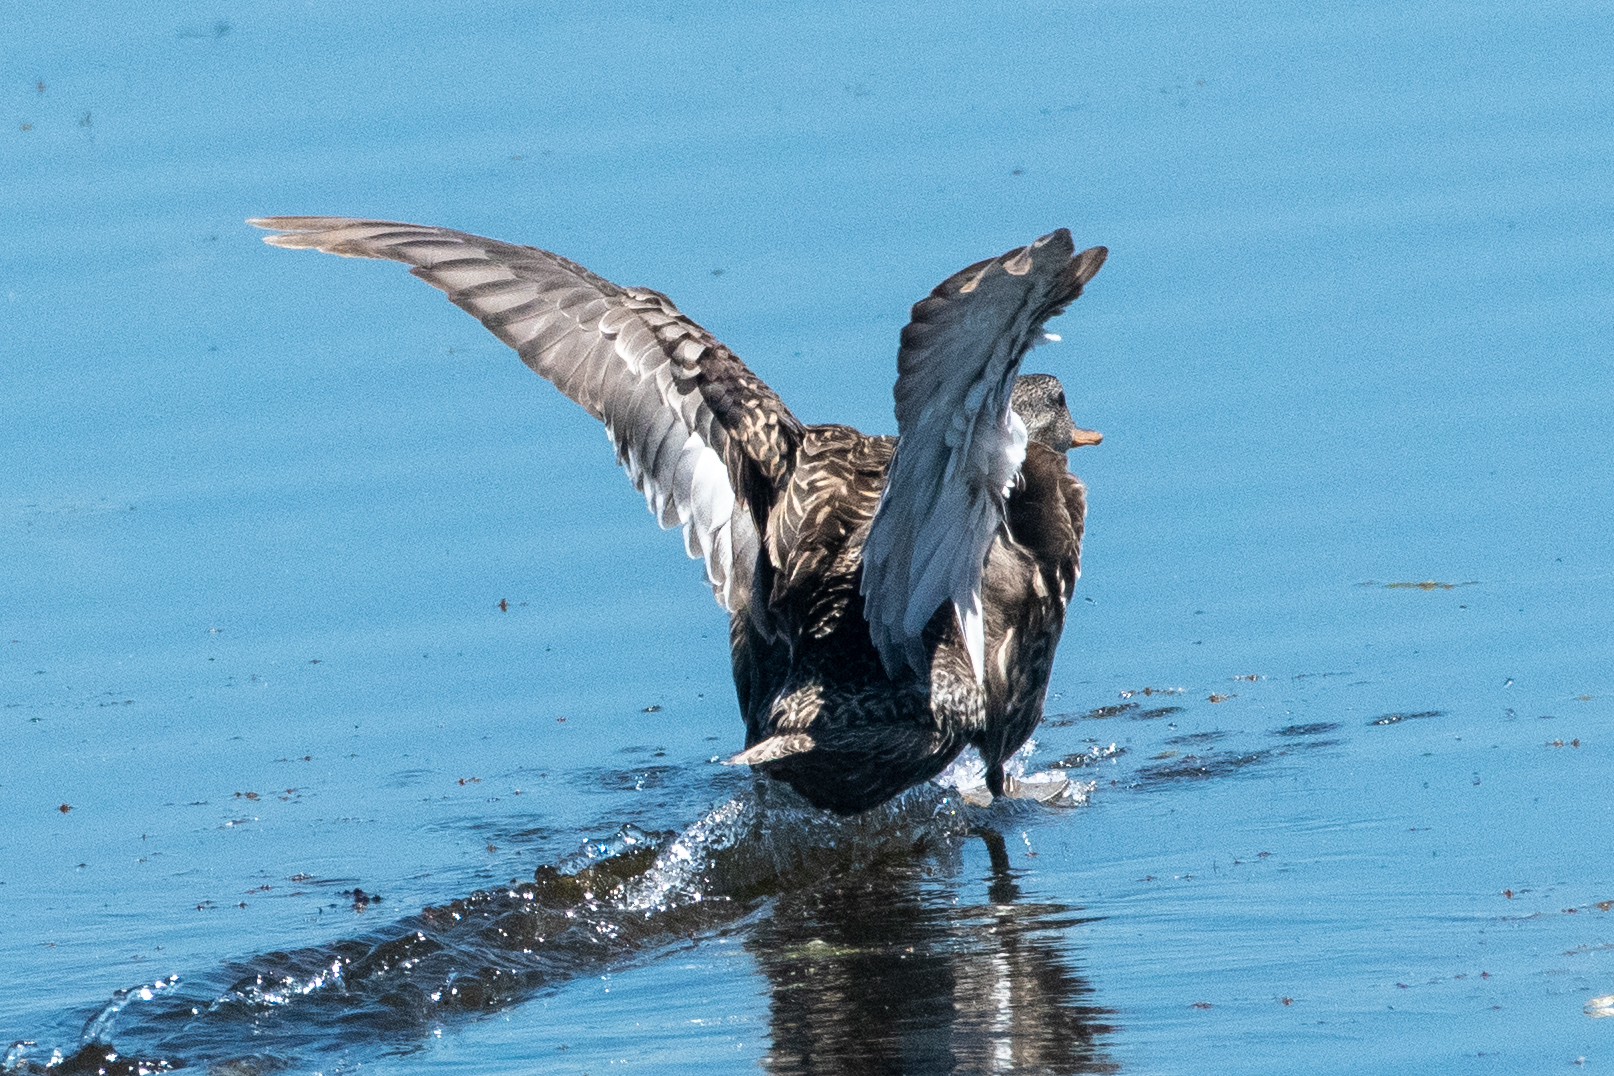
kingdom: Animalia
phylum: Chordata
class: Aves
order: Anseriformes
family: Anatidae
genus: Mareca
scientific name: Mareca strepera
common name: Gadwall
